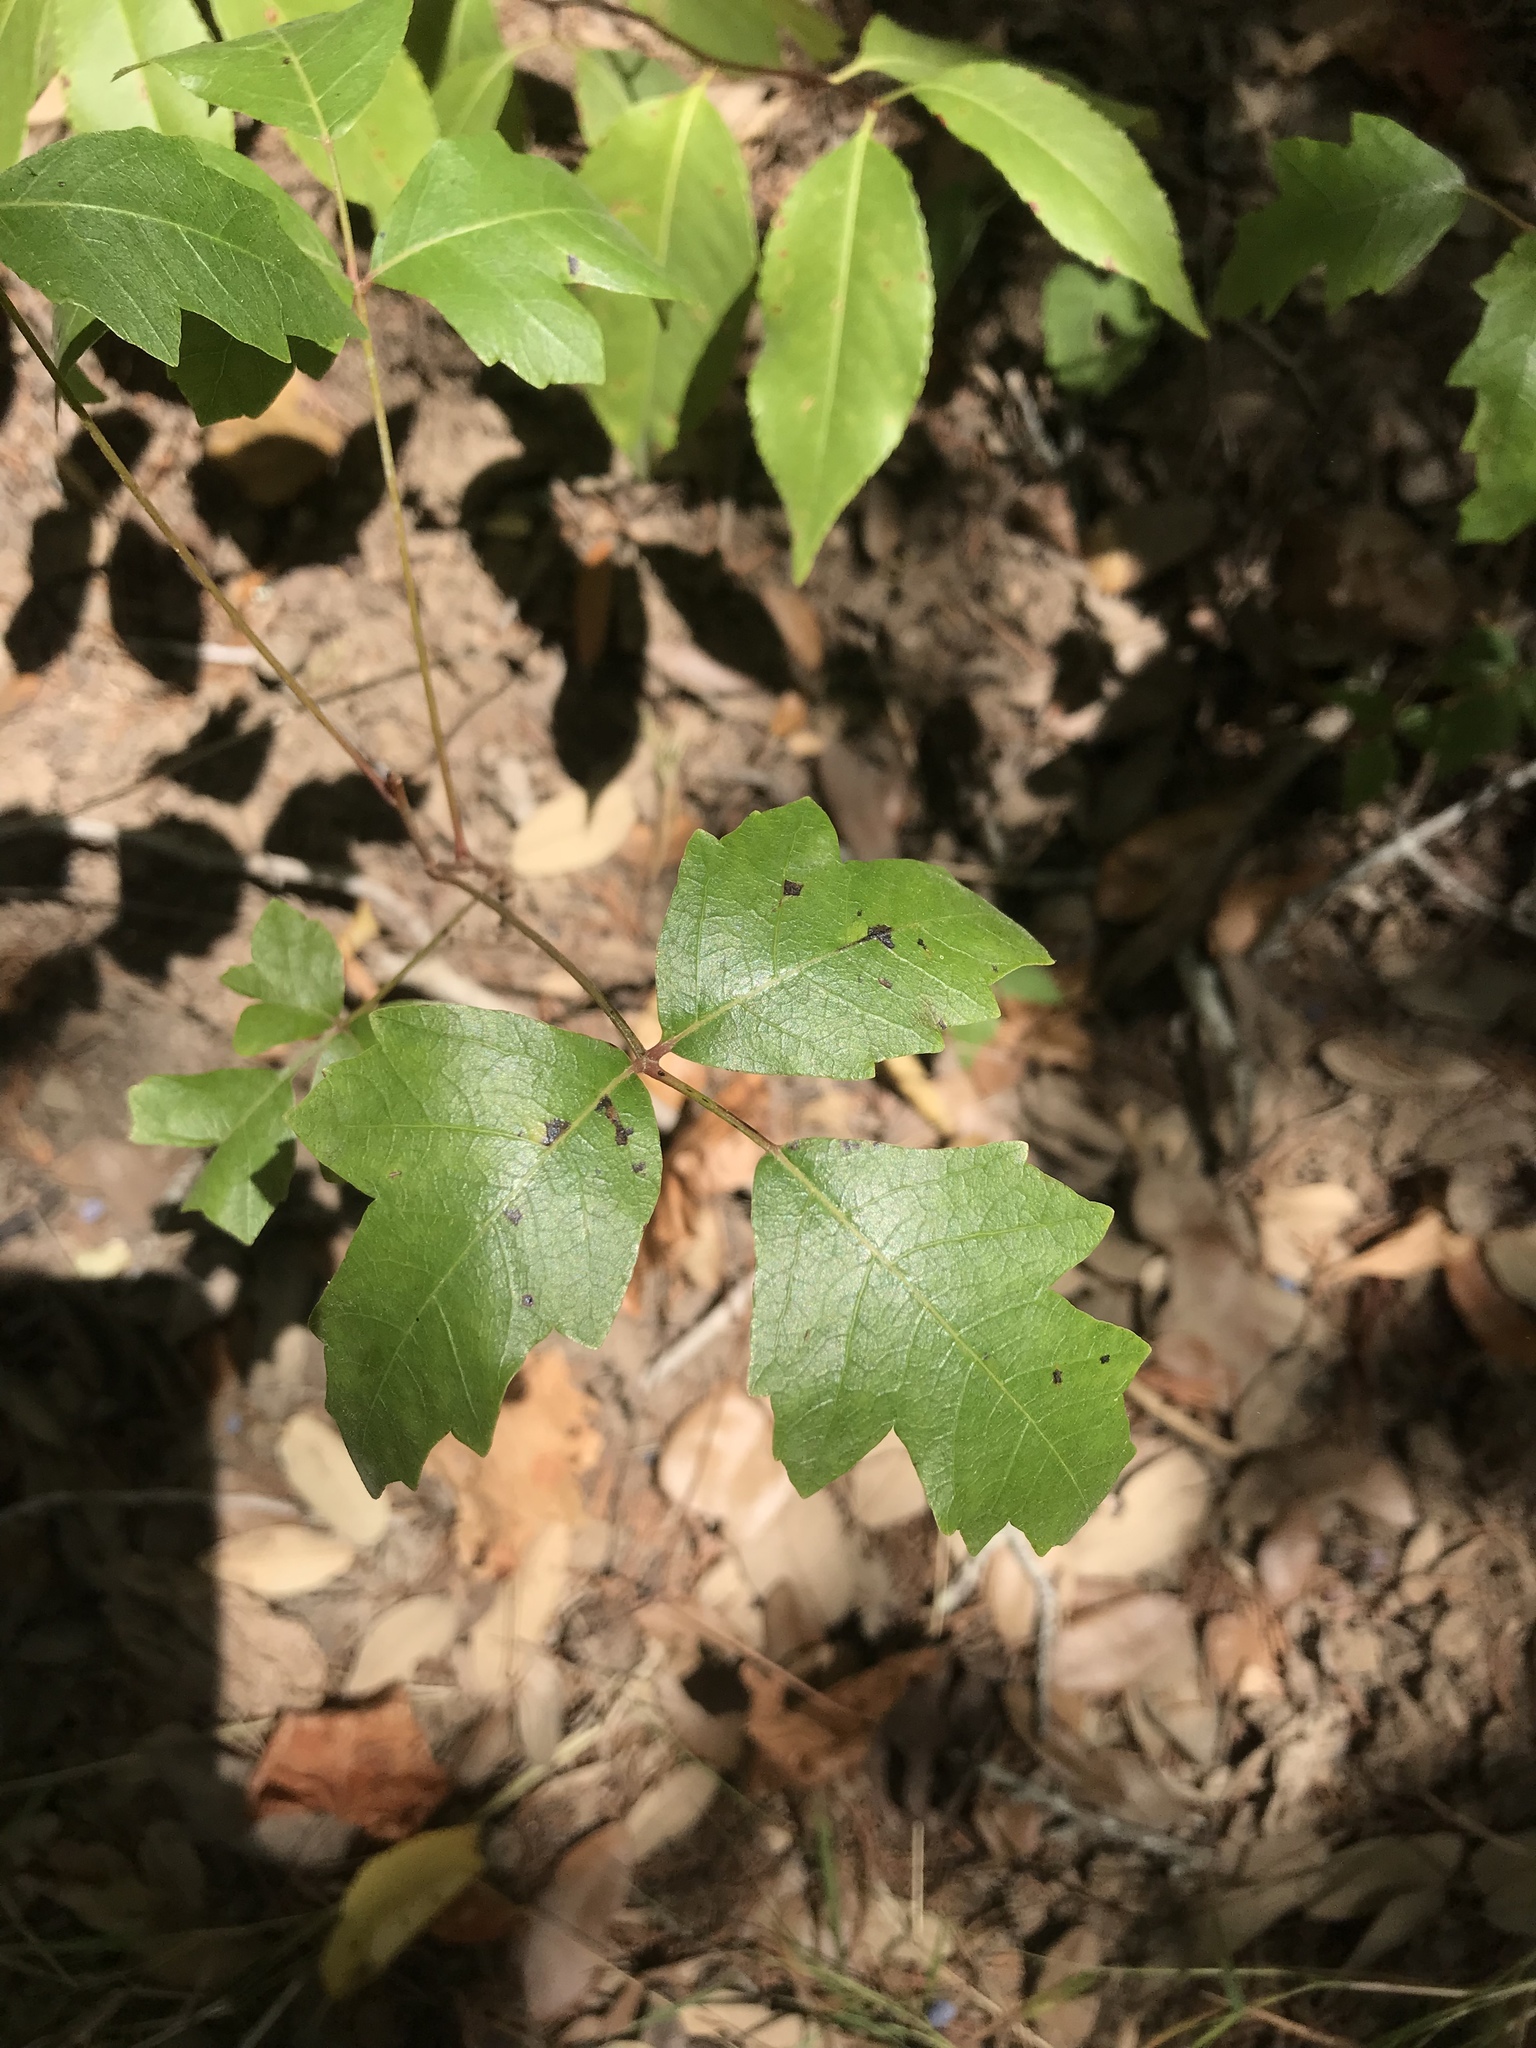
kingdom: Plantae
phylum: Tracheophyta
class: Magnoliopsida
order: Sapindales
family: Anacardiaceae
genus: Toxicodendron
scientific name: Toxicodendron radicans
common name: Poison ivy
